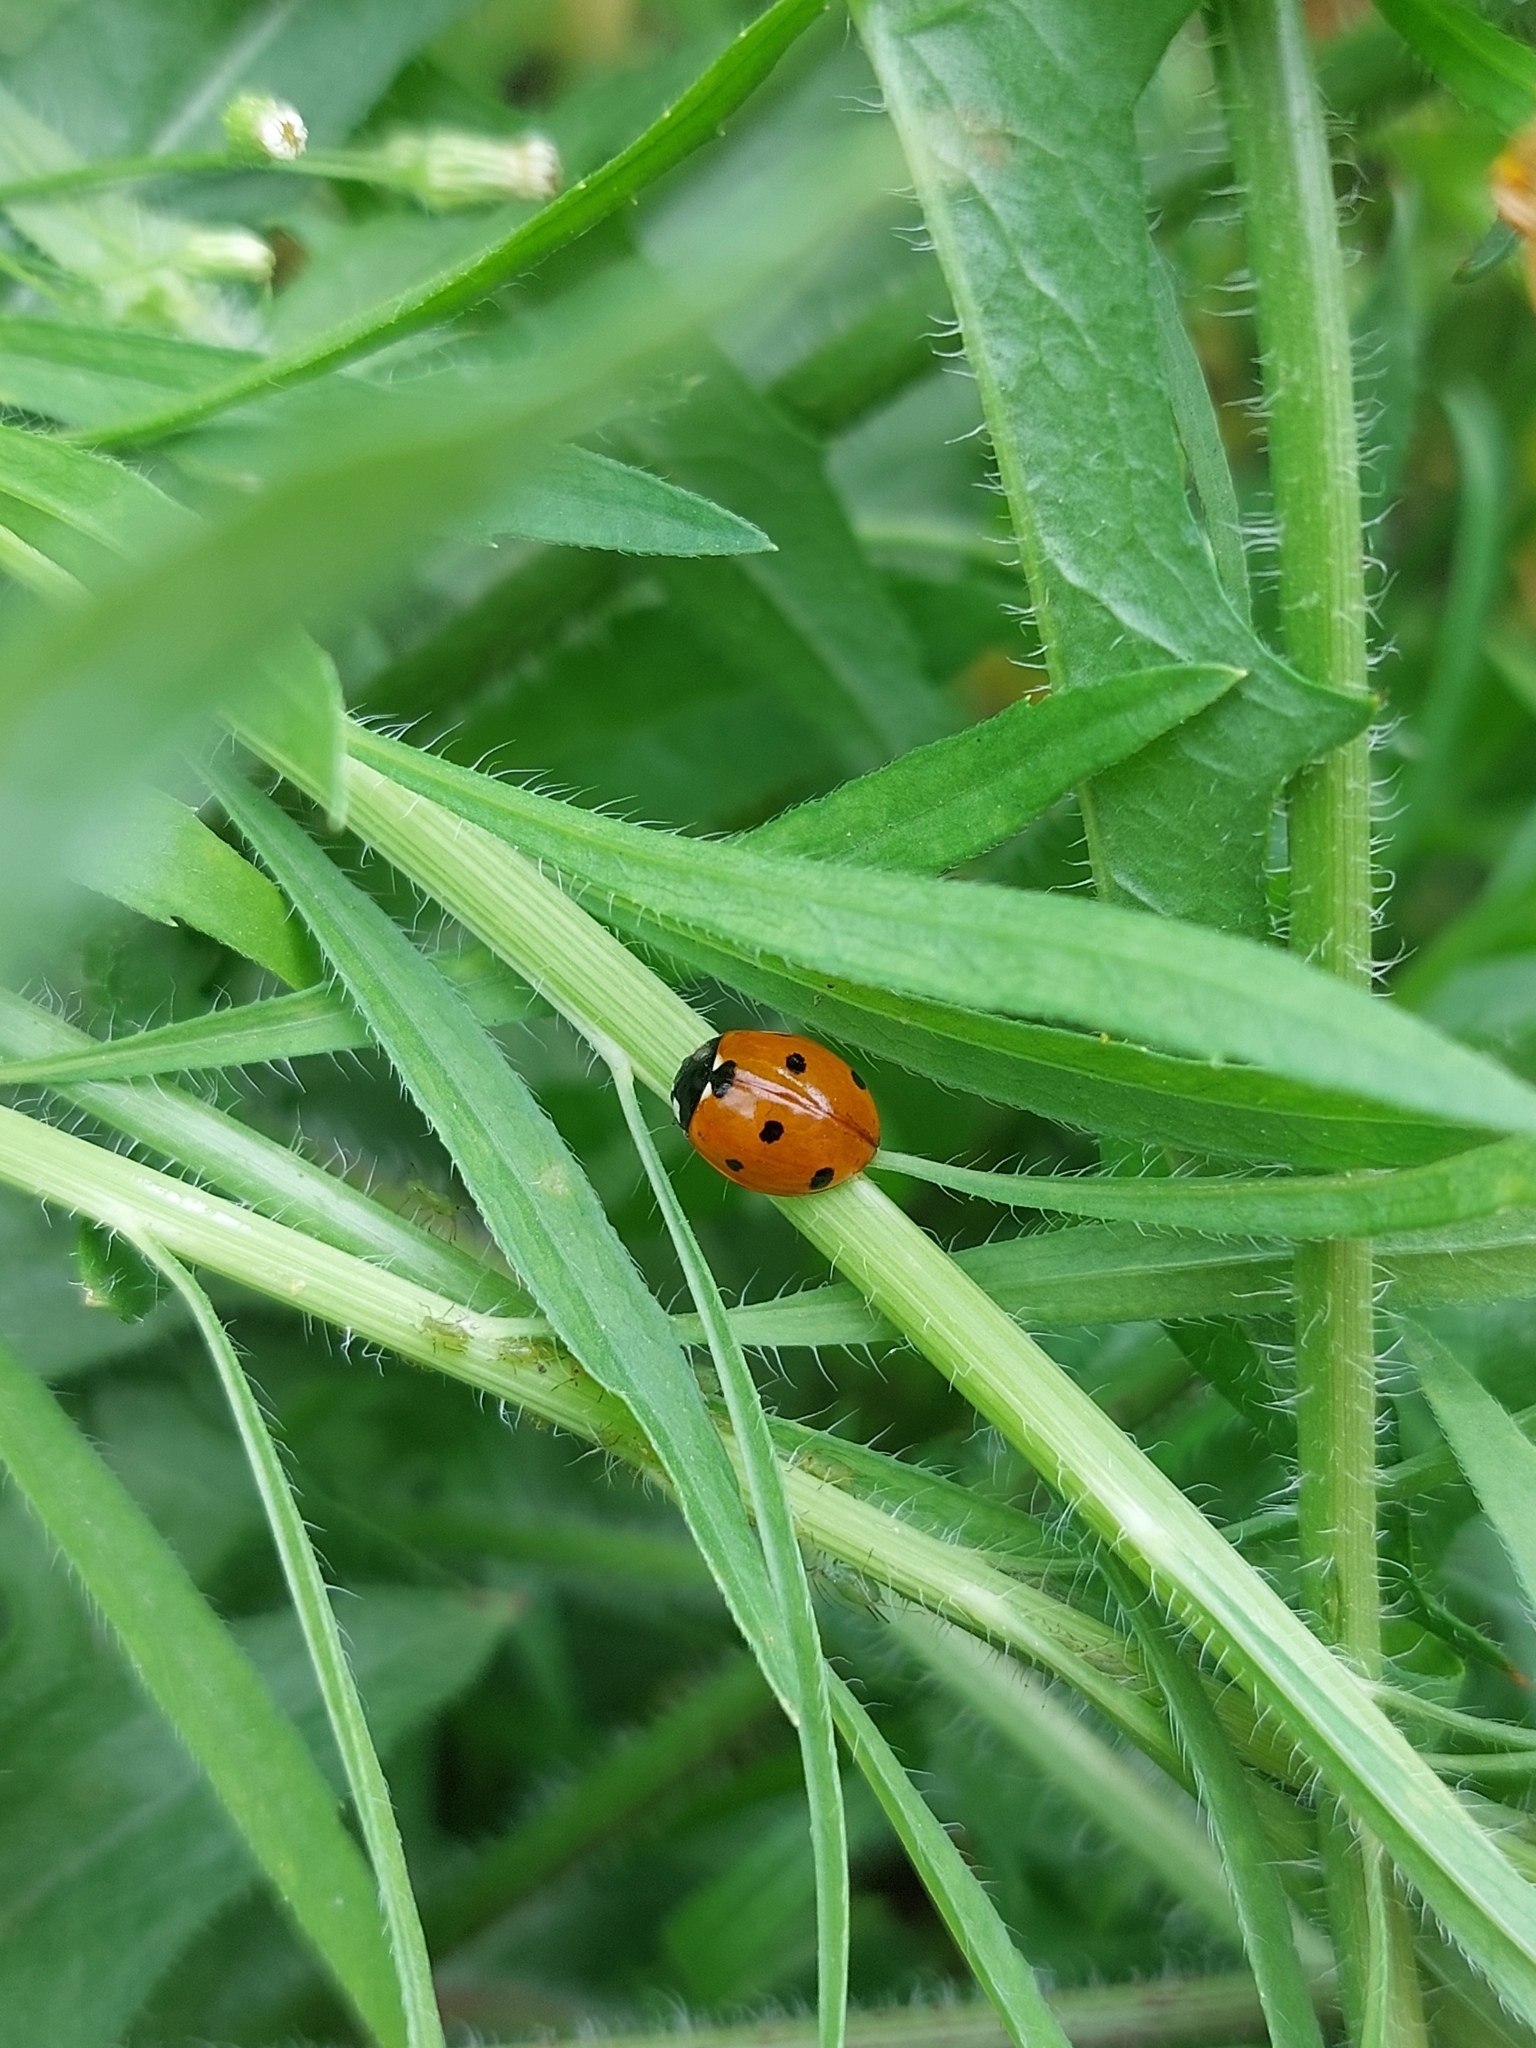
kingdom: Animalia
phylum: Arthropoda
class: Insecta
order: Coleoptera
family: Coccinellidae
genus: Coccinella
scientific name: Coccinella septempunctata
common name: Sevenspotted lady beetle
